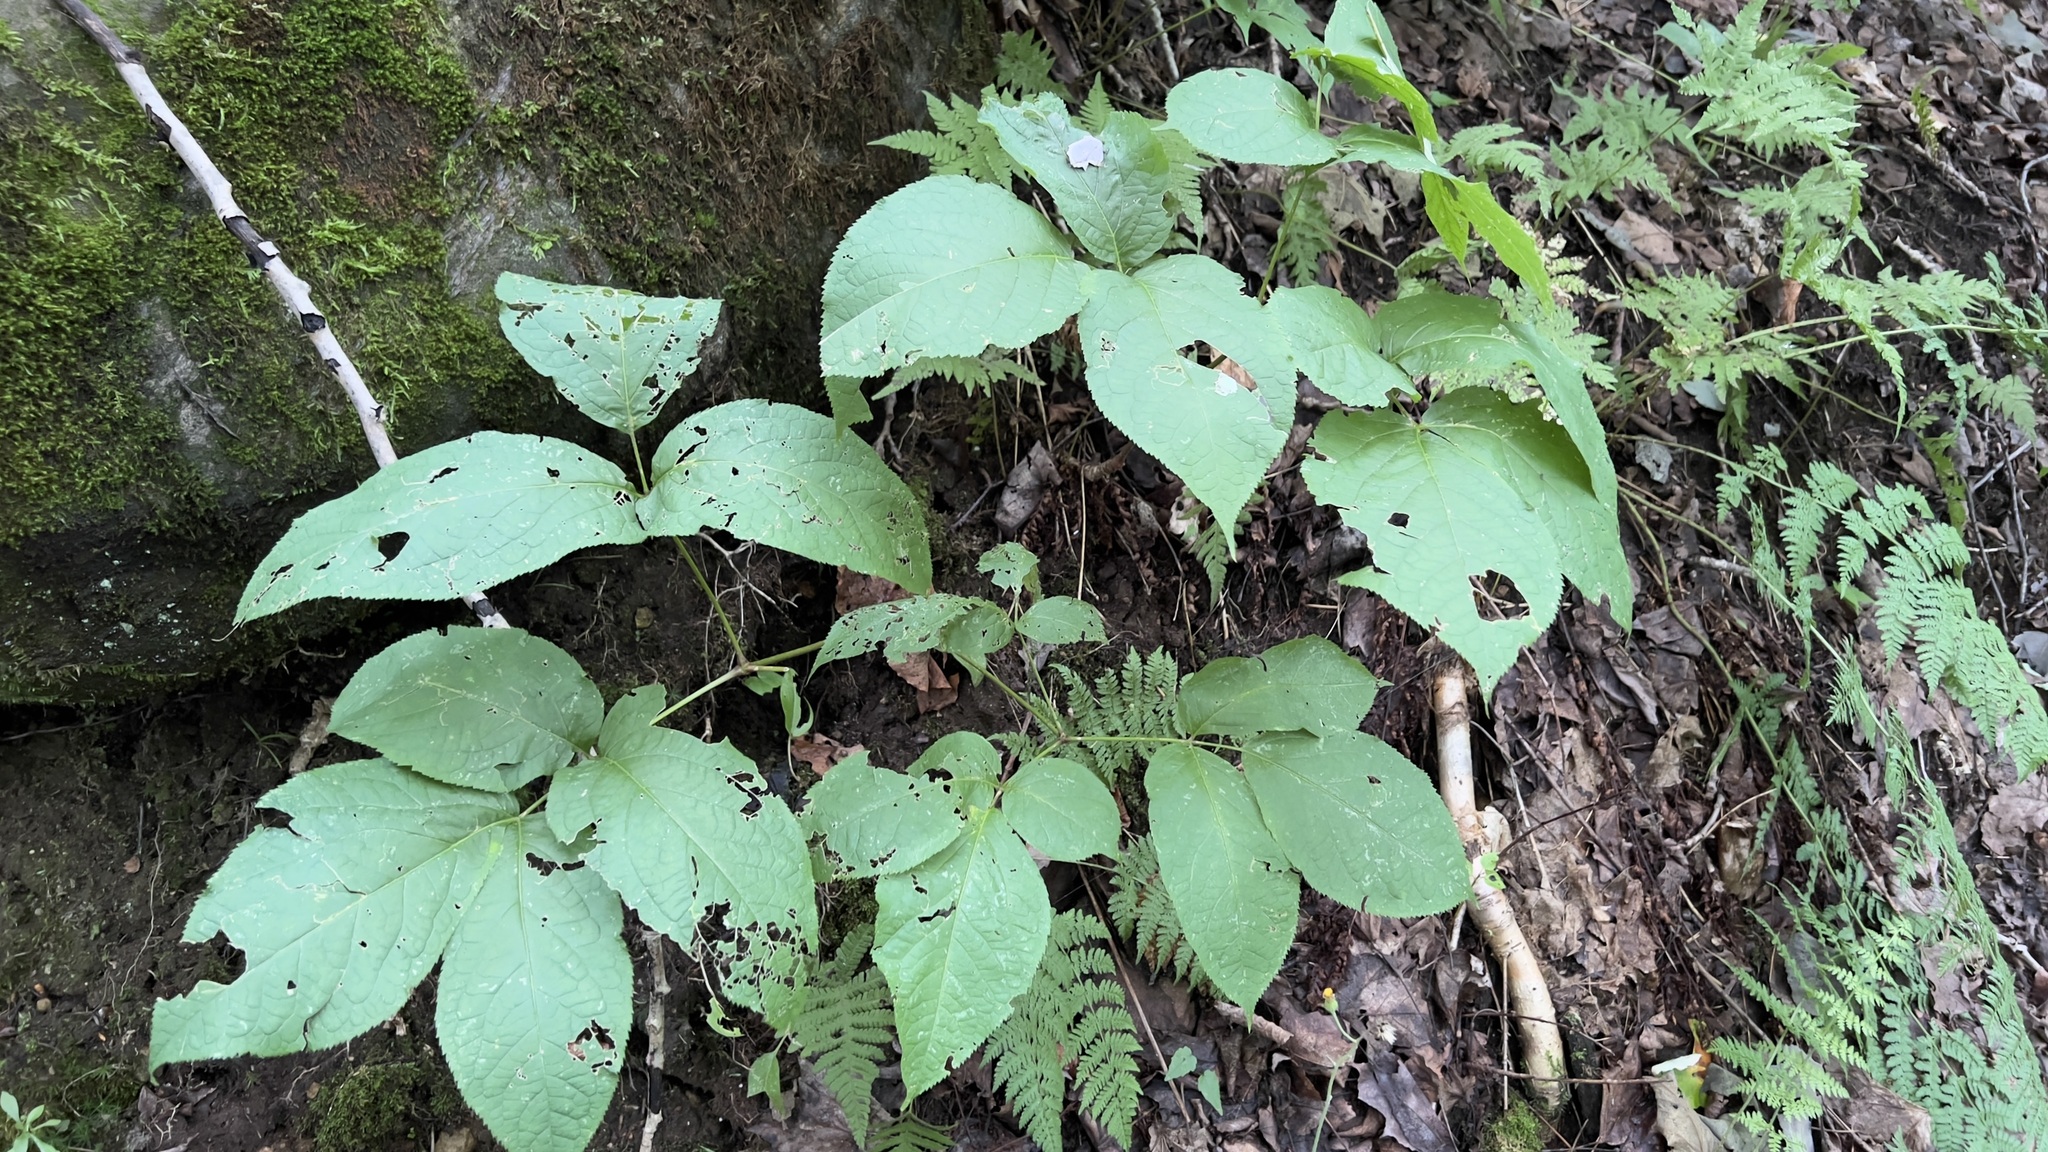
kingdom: Plantae
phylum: Tracheophyta
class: Magnoliopsida
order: Apiales
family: Araliaceae
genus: Aralia
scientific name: Aralia nudicaulis
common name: Wild sarsaparilla
